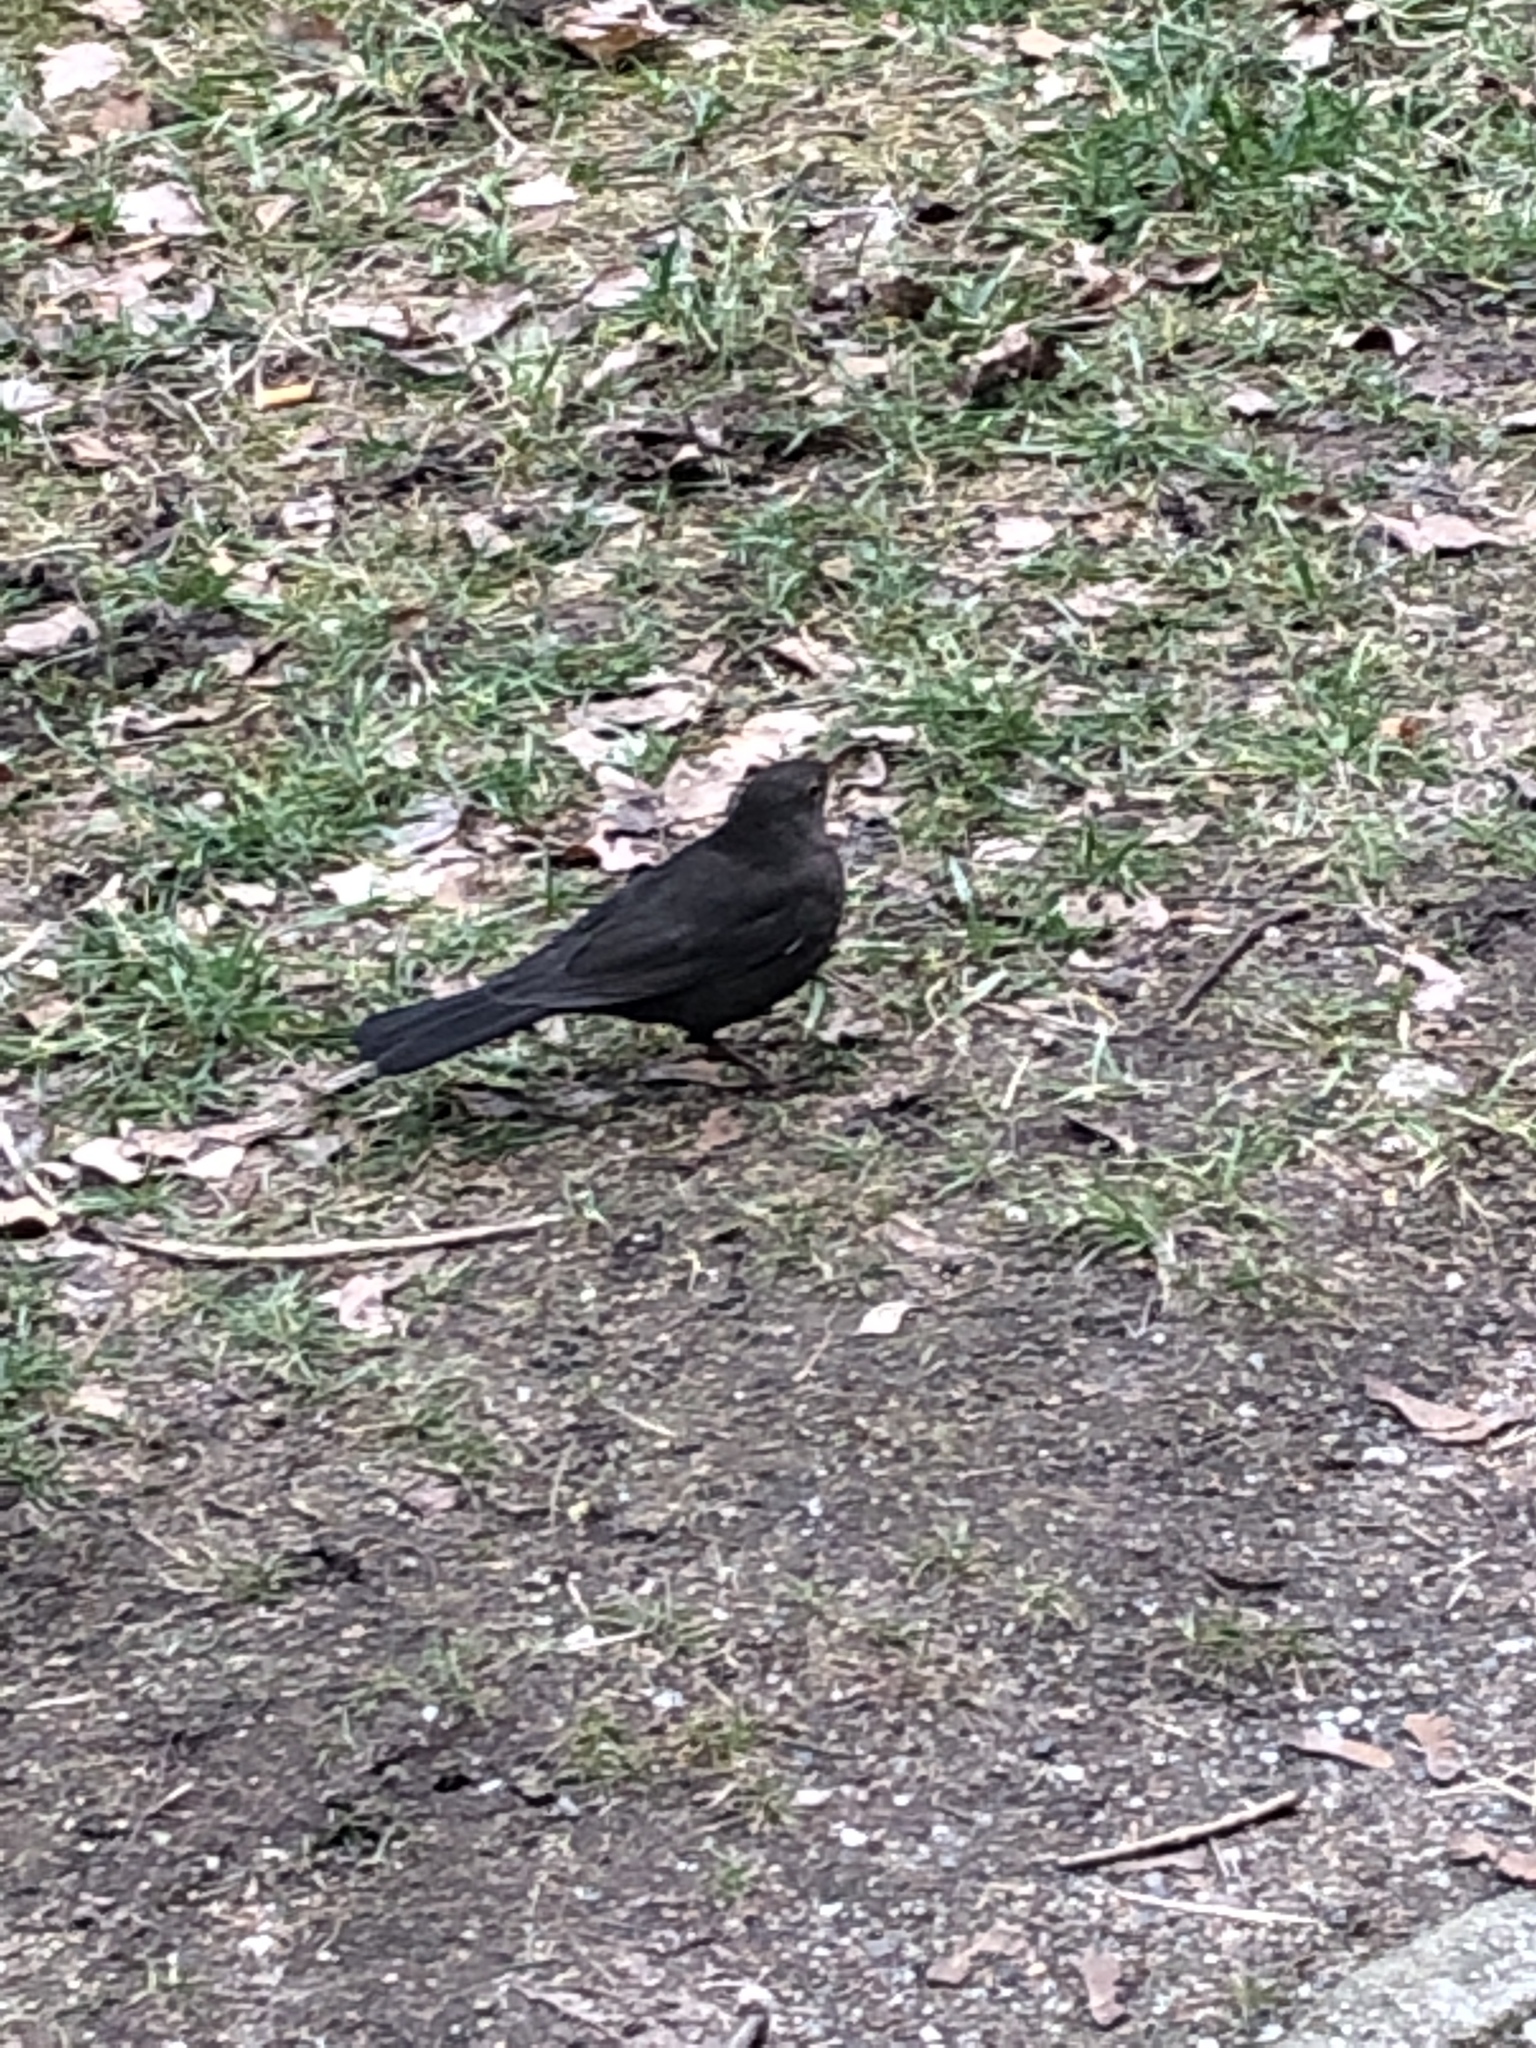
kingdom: Animalia
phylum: Chordata
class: Aves
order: Passeriformes
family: Turdidae
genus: Turdus
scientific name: Turdus merula
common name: Common blackbird
